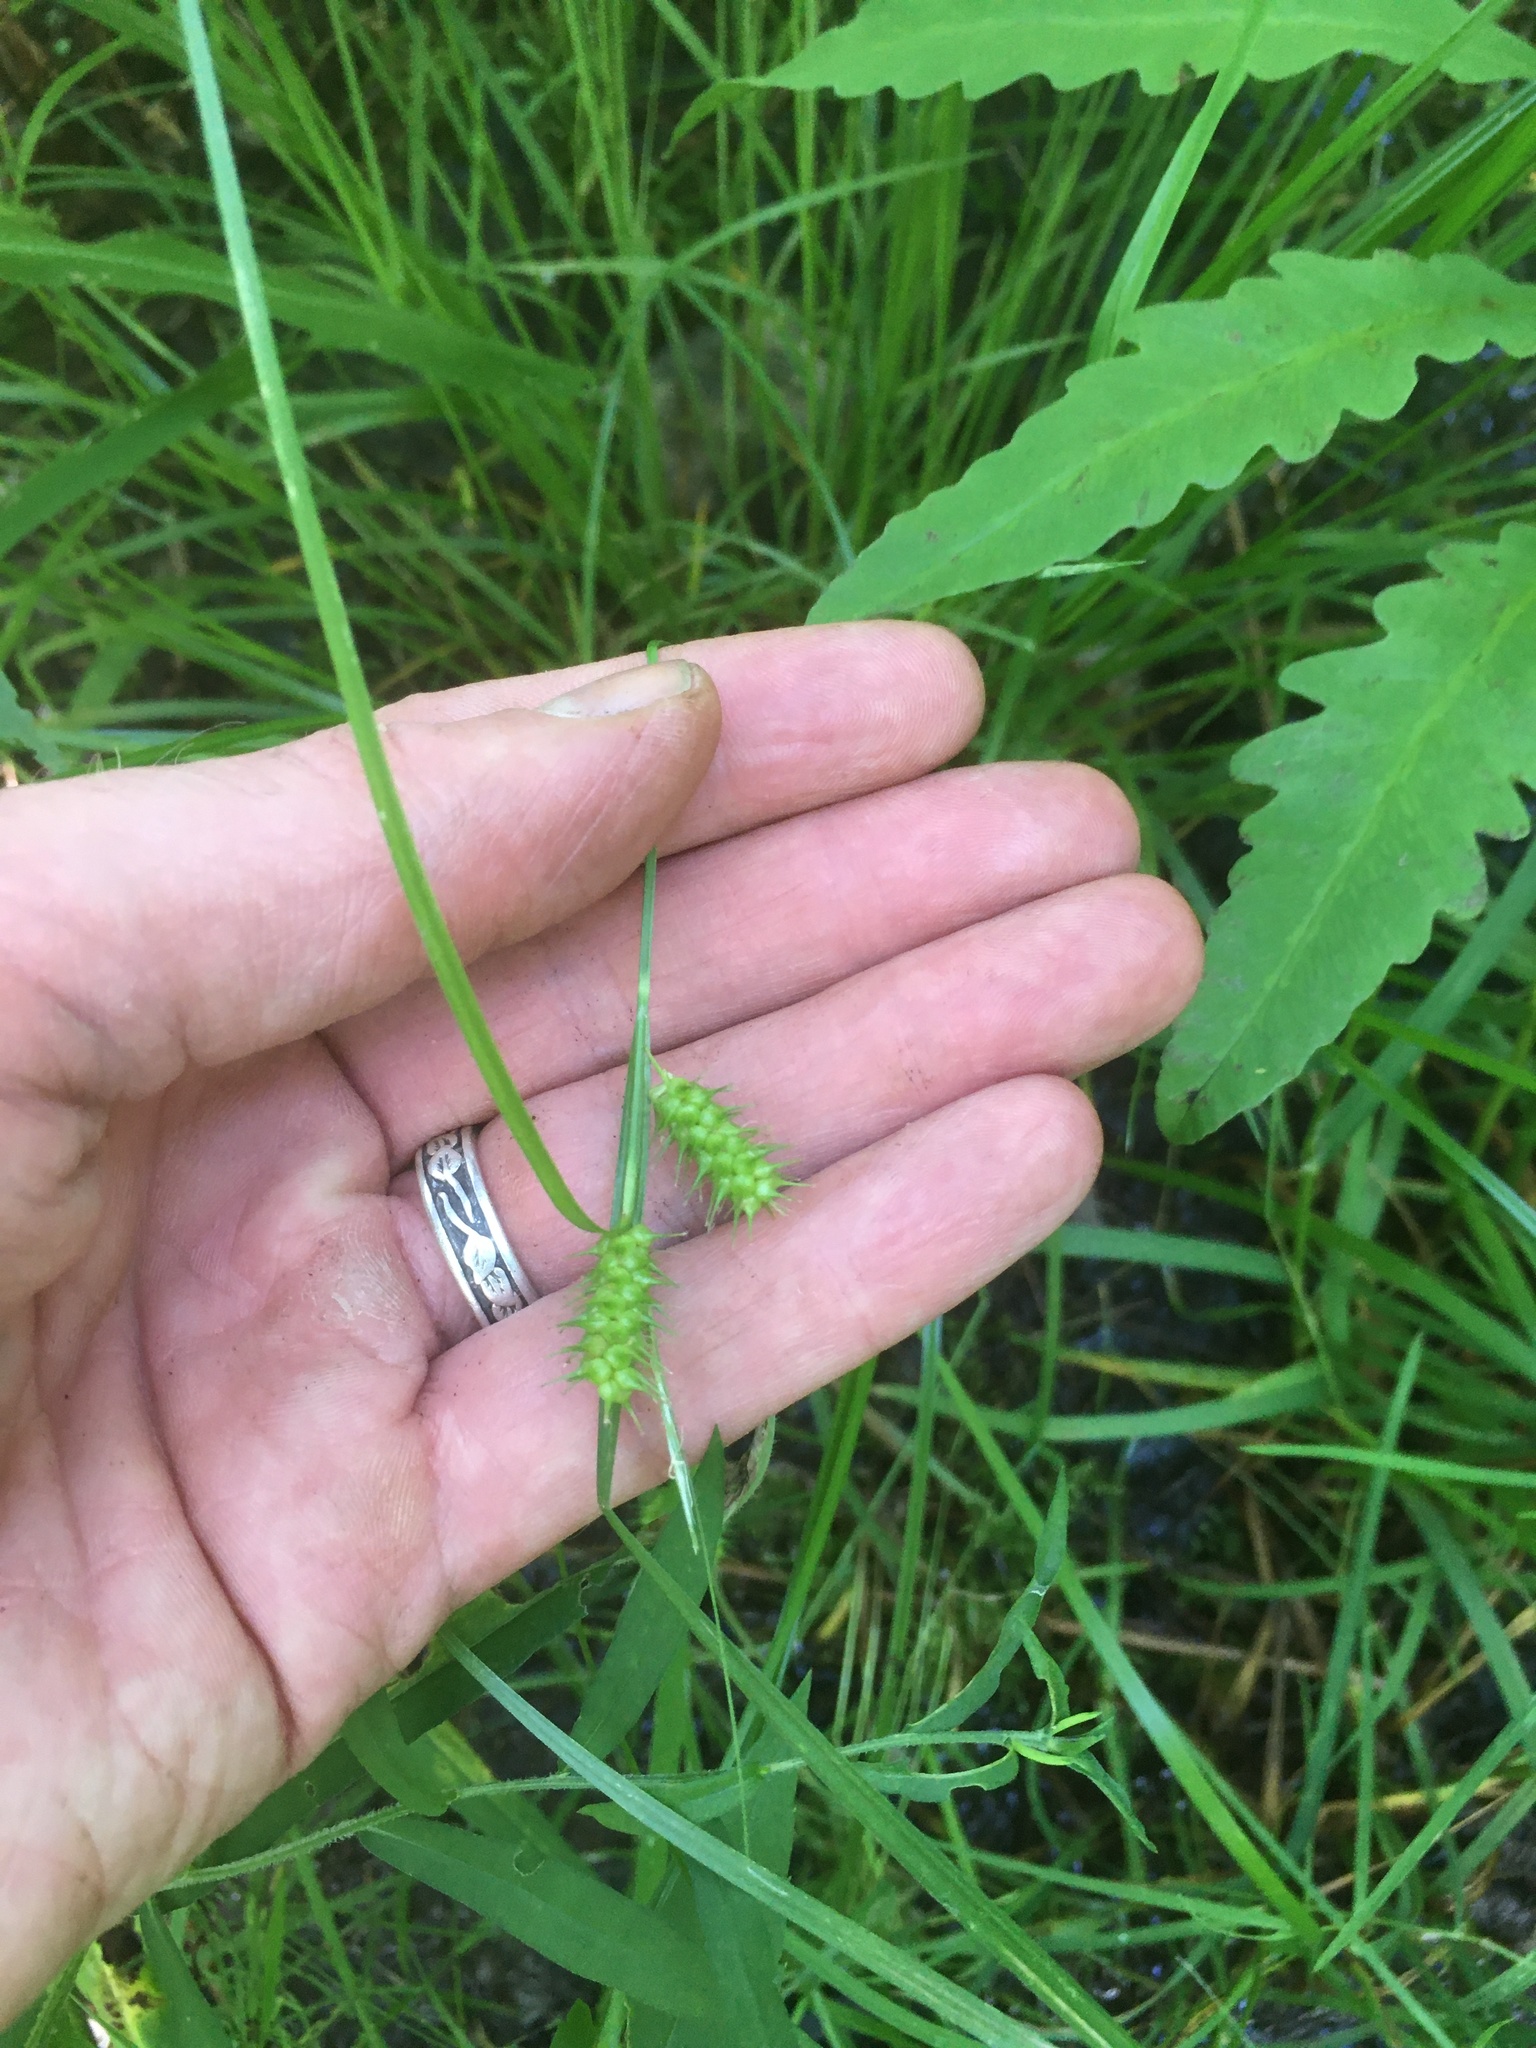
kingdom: Plantae
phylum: Tracheophyta
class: Liliopsida
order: Poales
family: Cyperaceae
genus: Carex
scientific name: Carex baileyi
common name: Bailey's sedge
